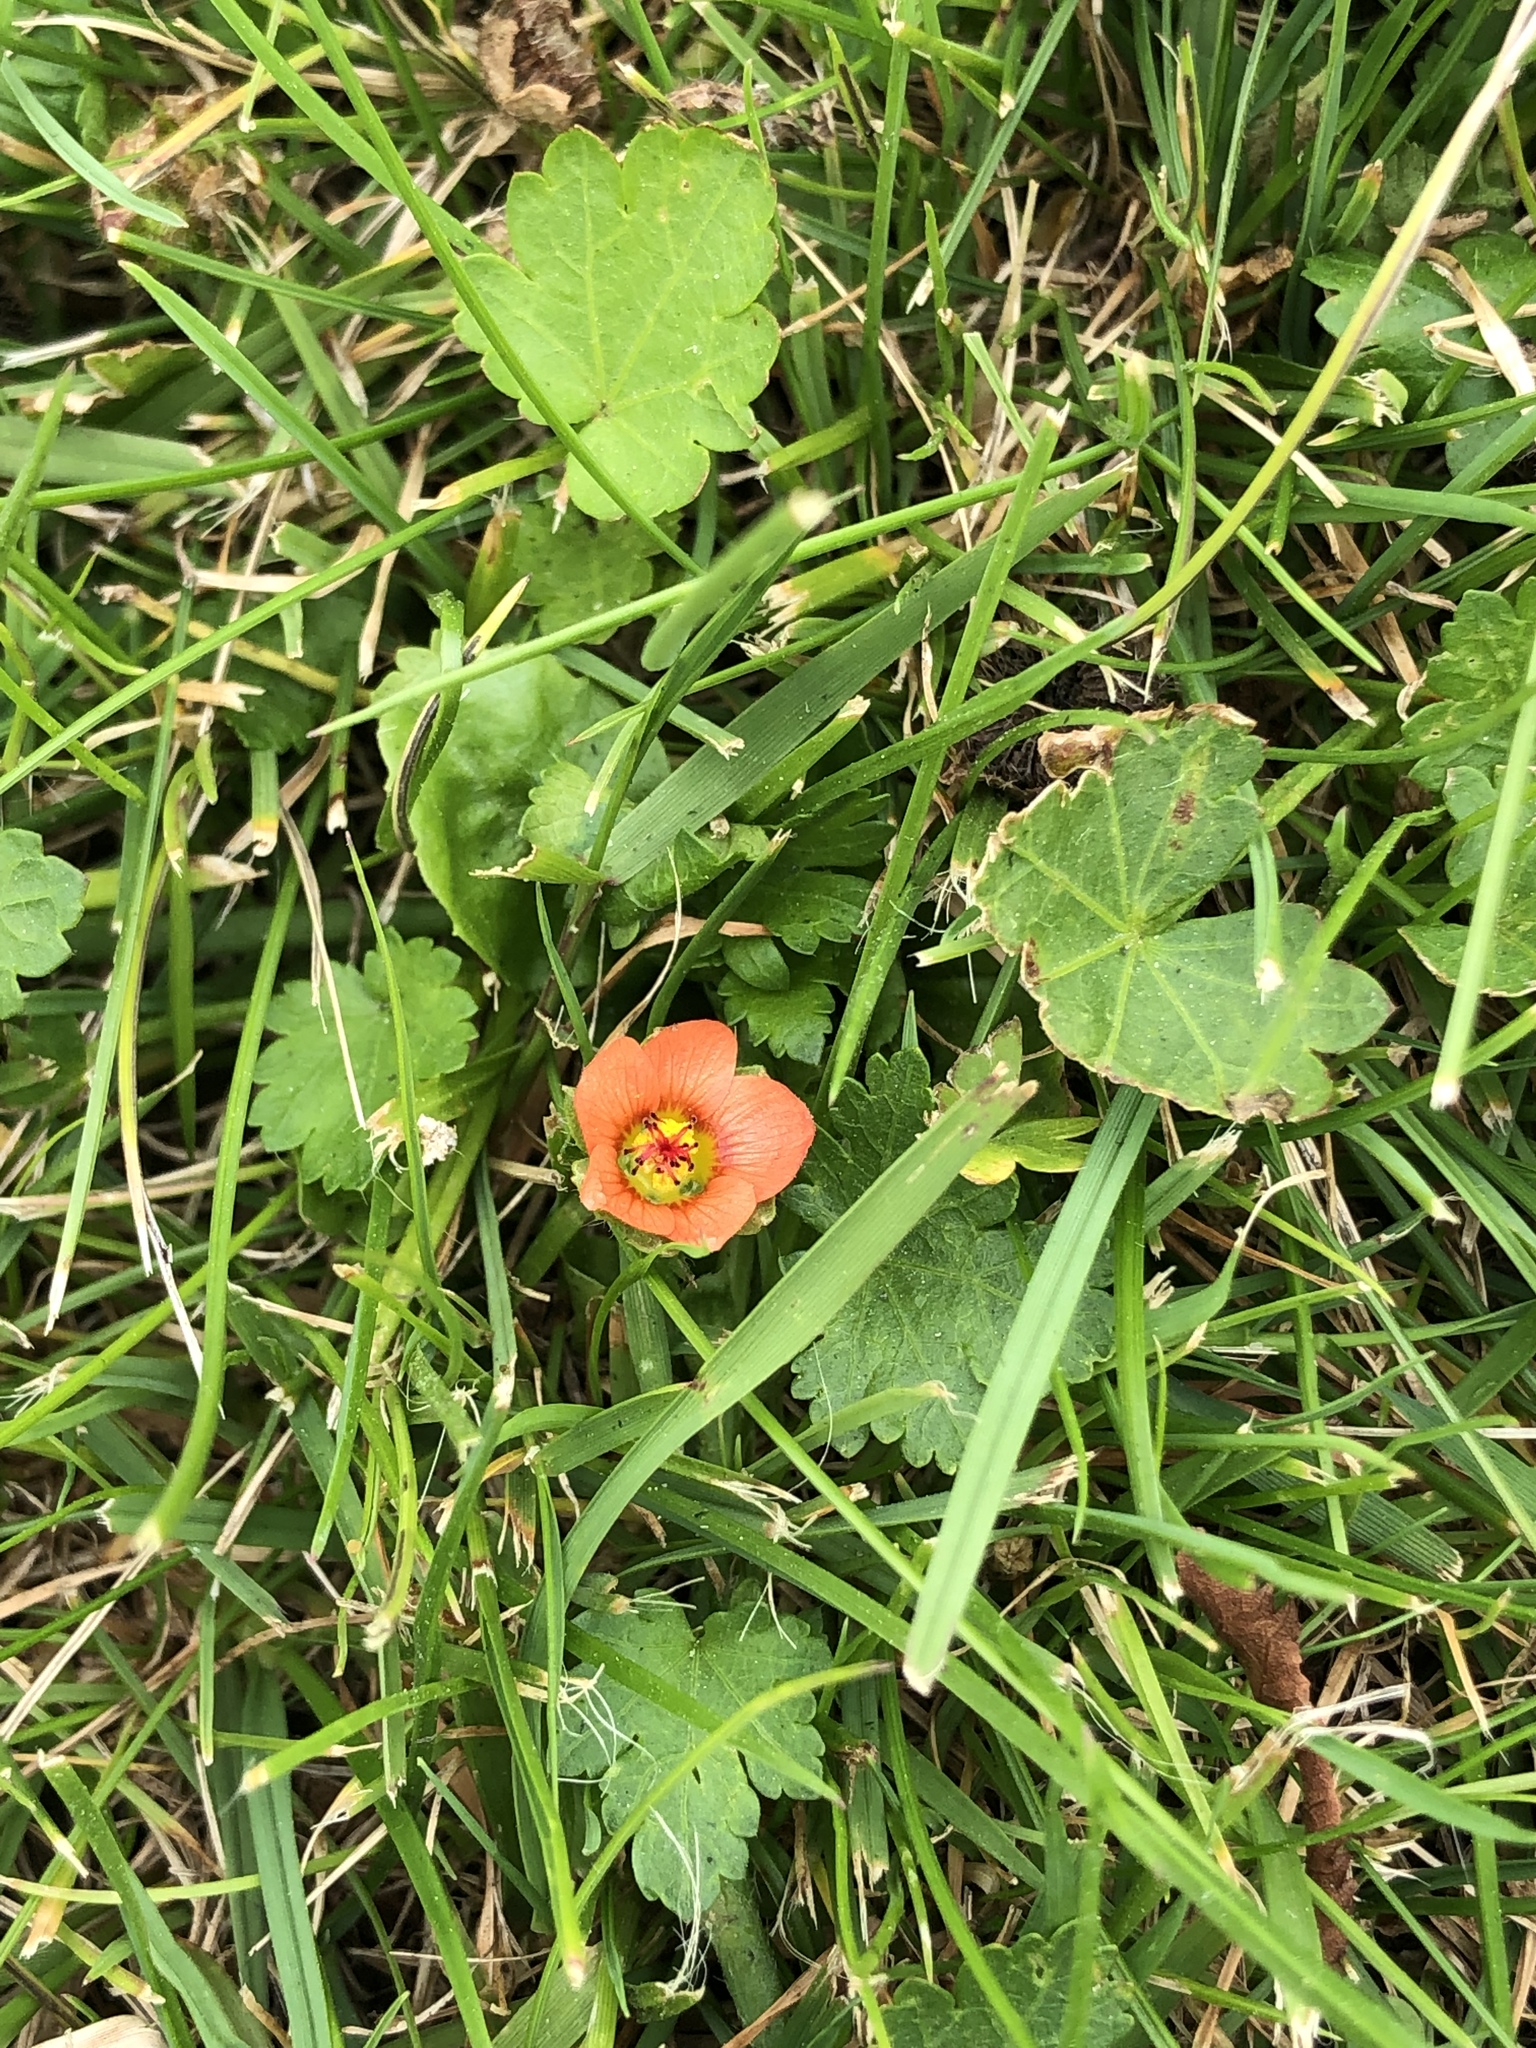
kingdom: Plantae
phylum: Tracheophyta
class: Magnoliopsida
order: Malvales
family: Malvaceae
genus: Modiola
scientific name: Modiola caroliniana
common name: Carolina bristlemallow
